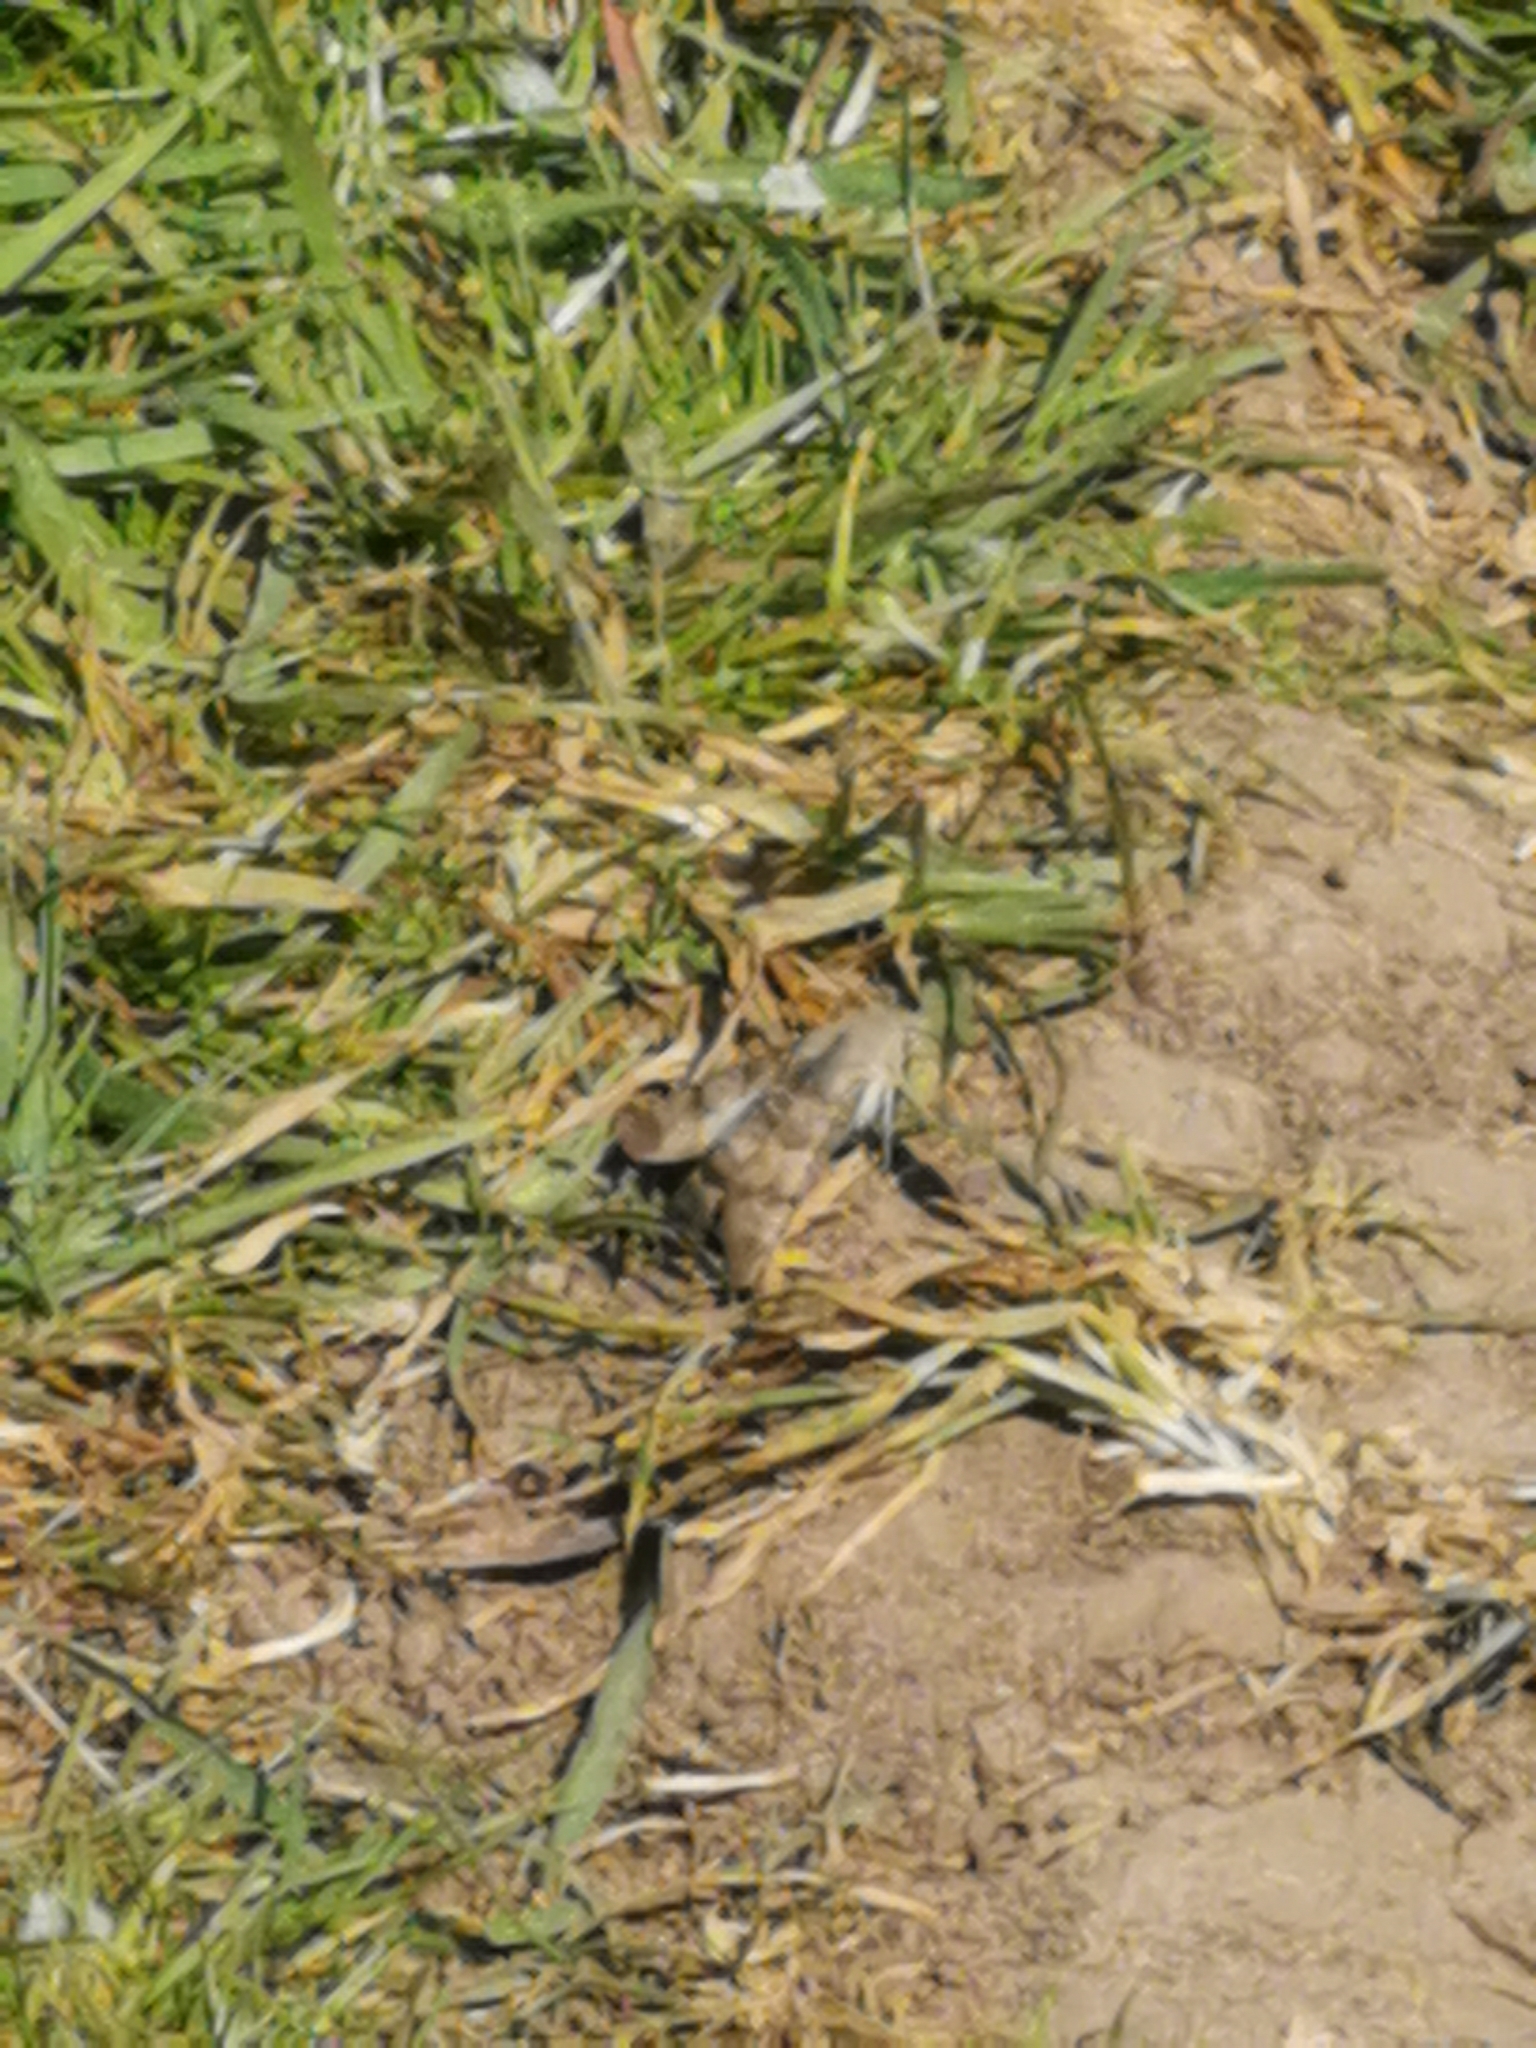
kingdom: Animalia
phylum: Arthropoda
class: Insecta
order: Lepidoptera
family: Sphingidae
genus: Macroglossum
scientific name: Macroglossum stellatarum
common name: Humming-bird hawk-moth
